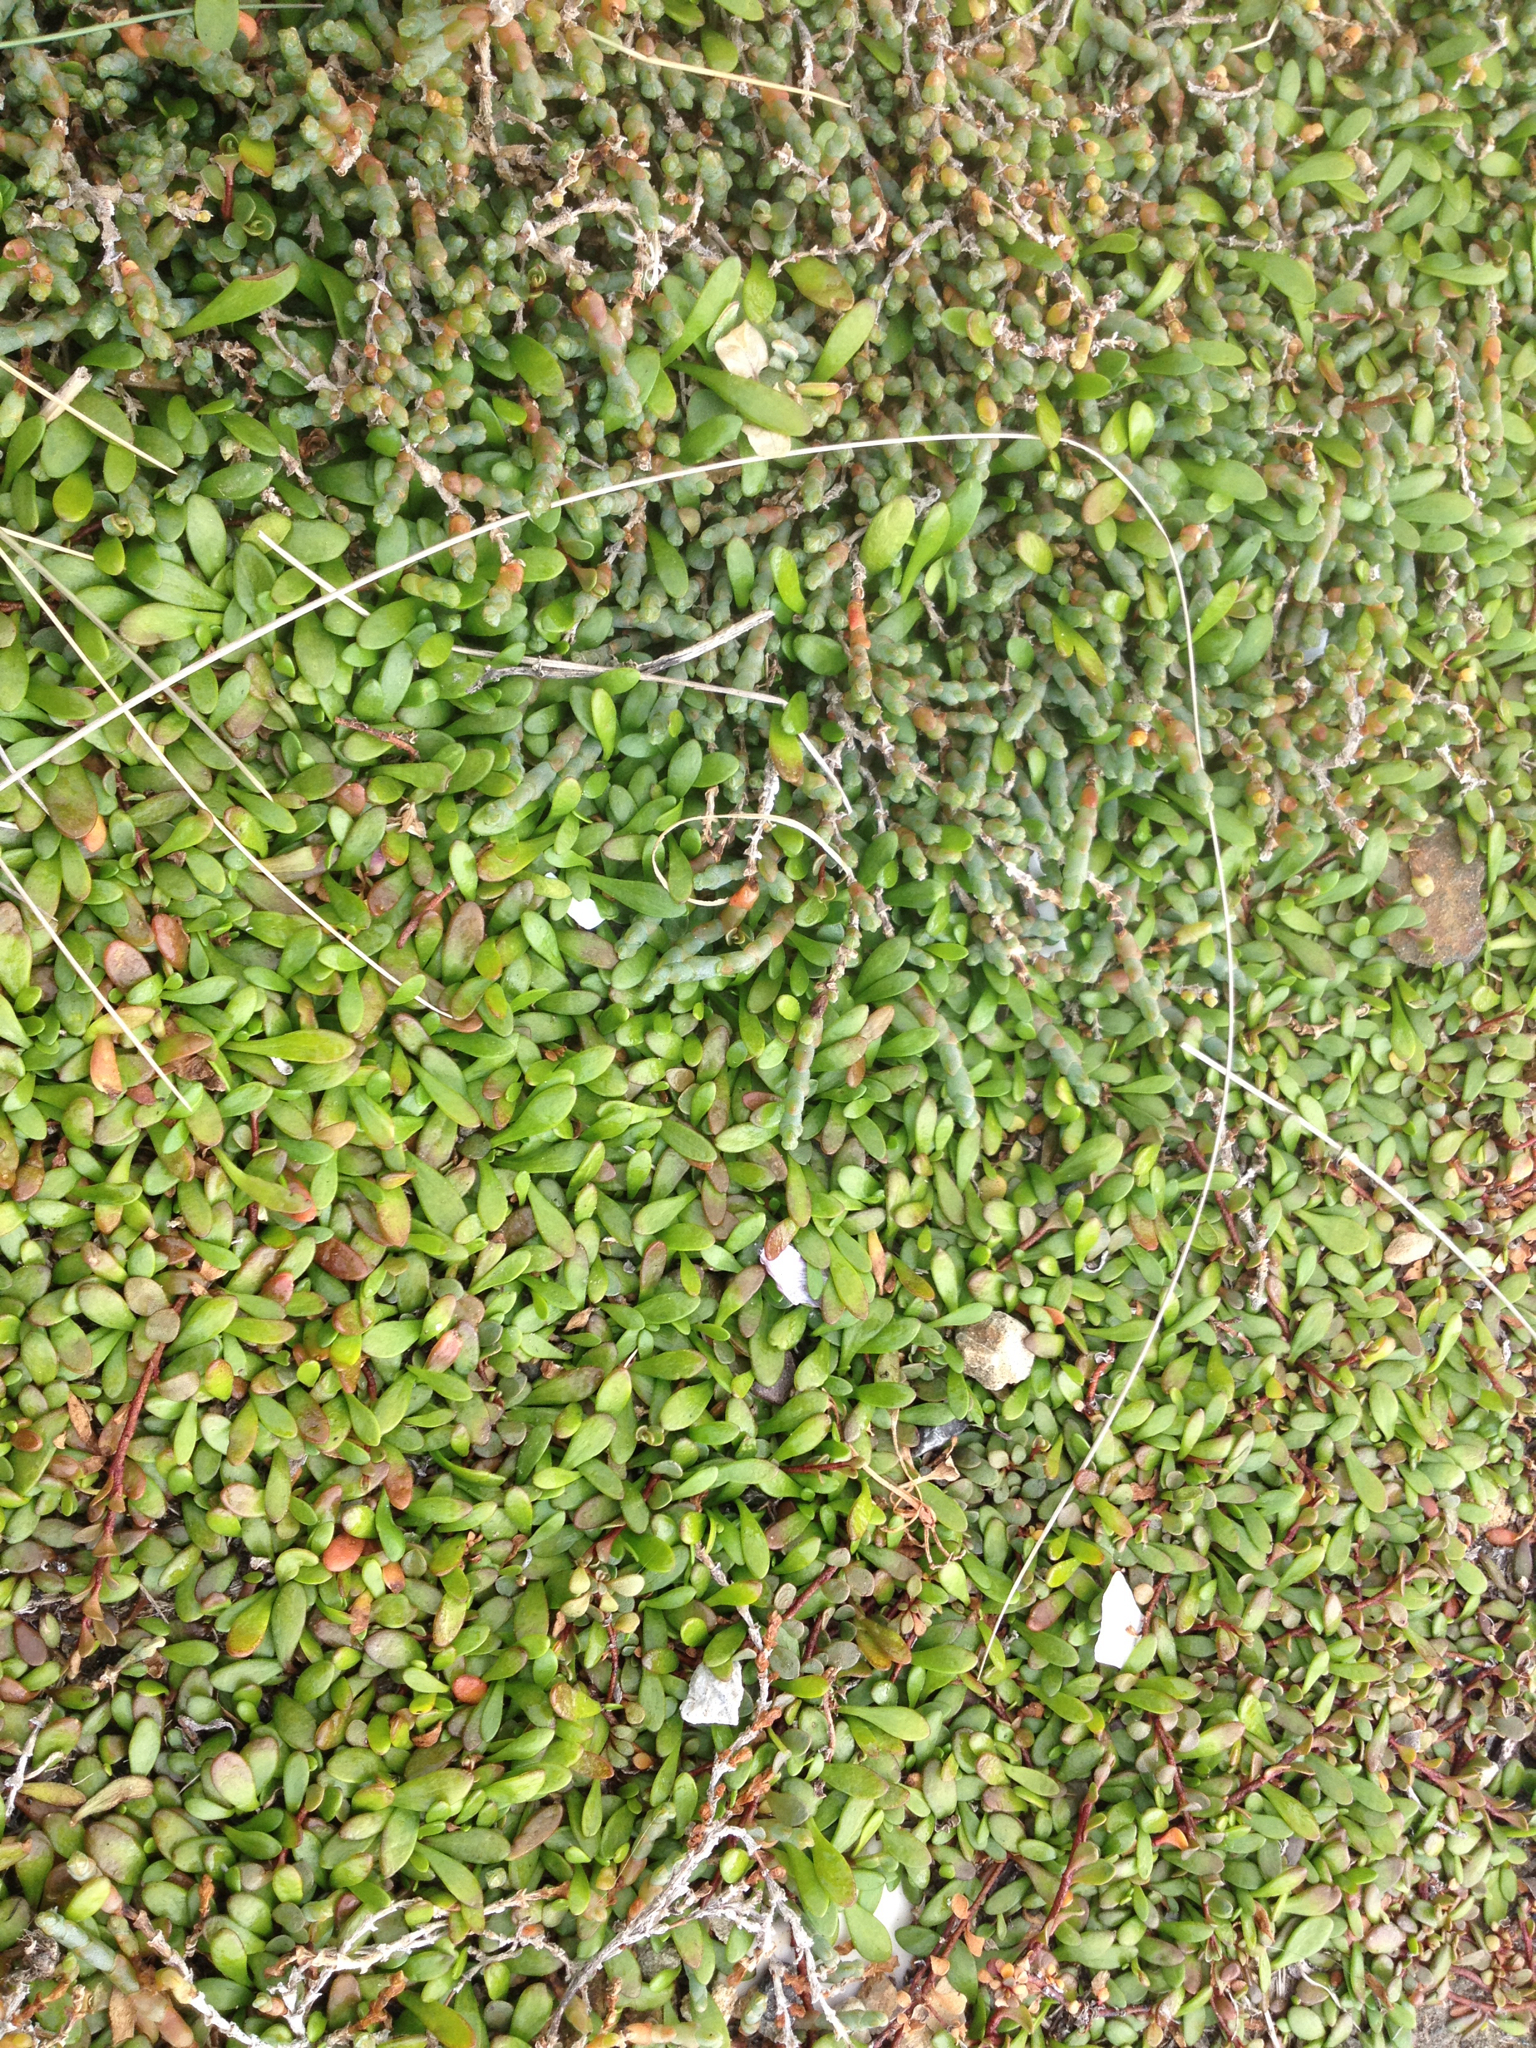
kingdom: Plantae
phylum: Tracheophyta
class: Magnoliopsida
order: Asterales
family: Goodeniaceae
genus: Goodenia
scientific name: Goodenia radicans
